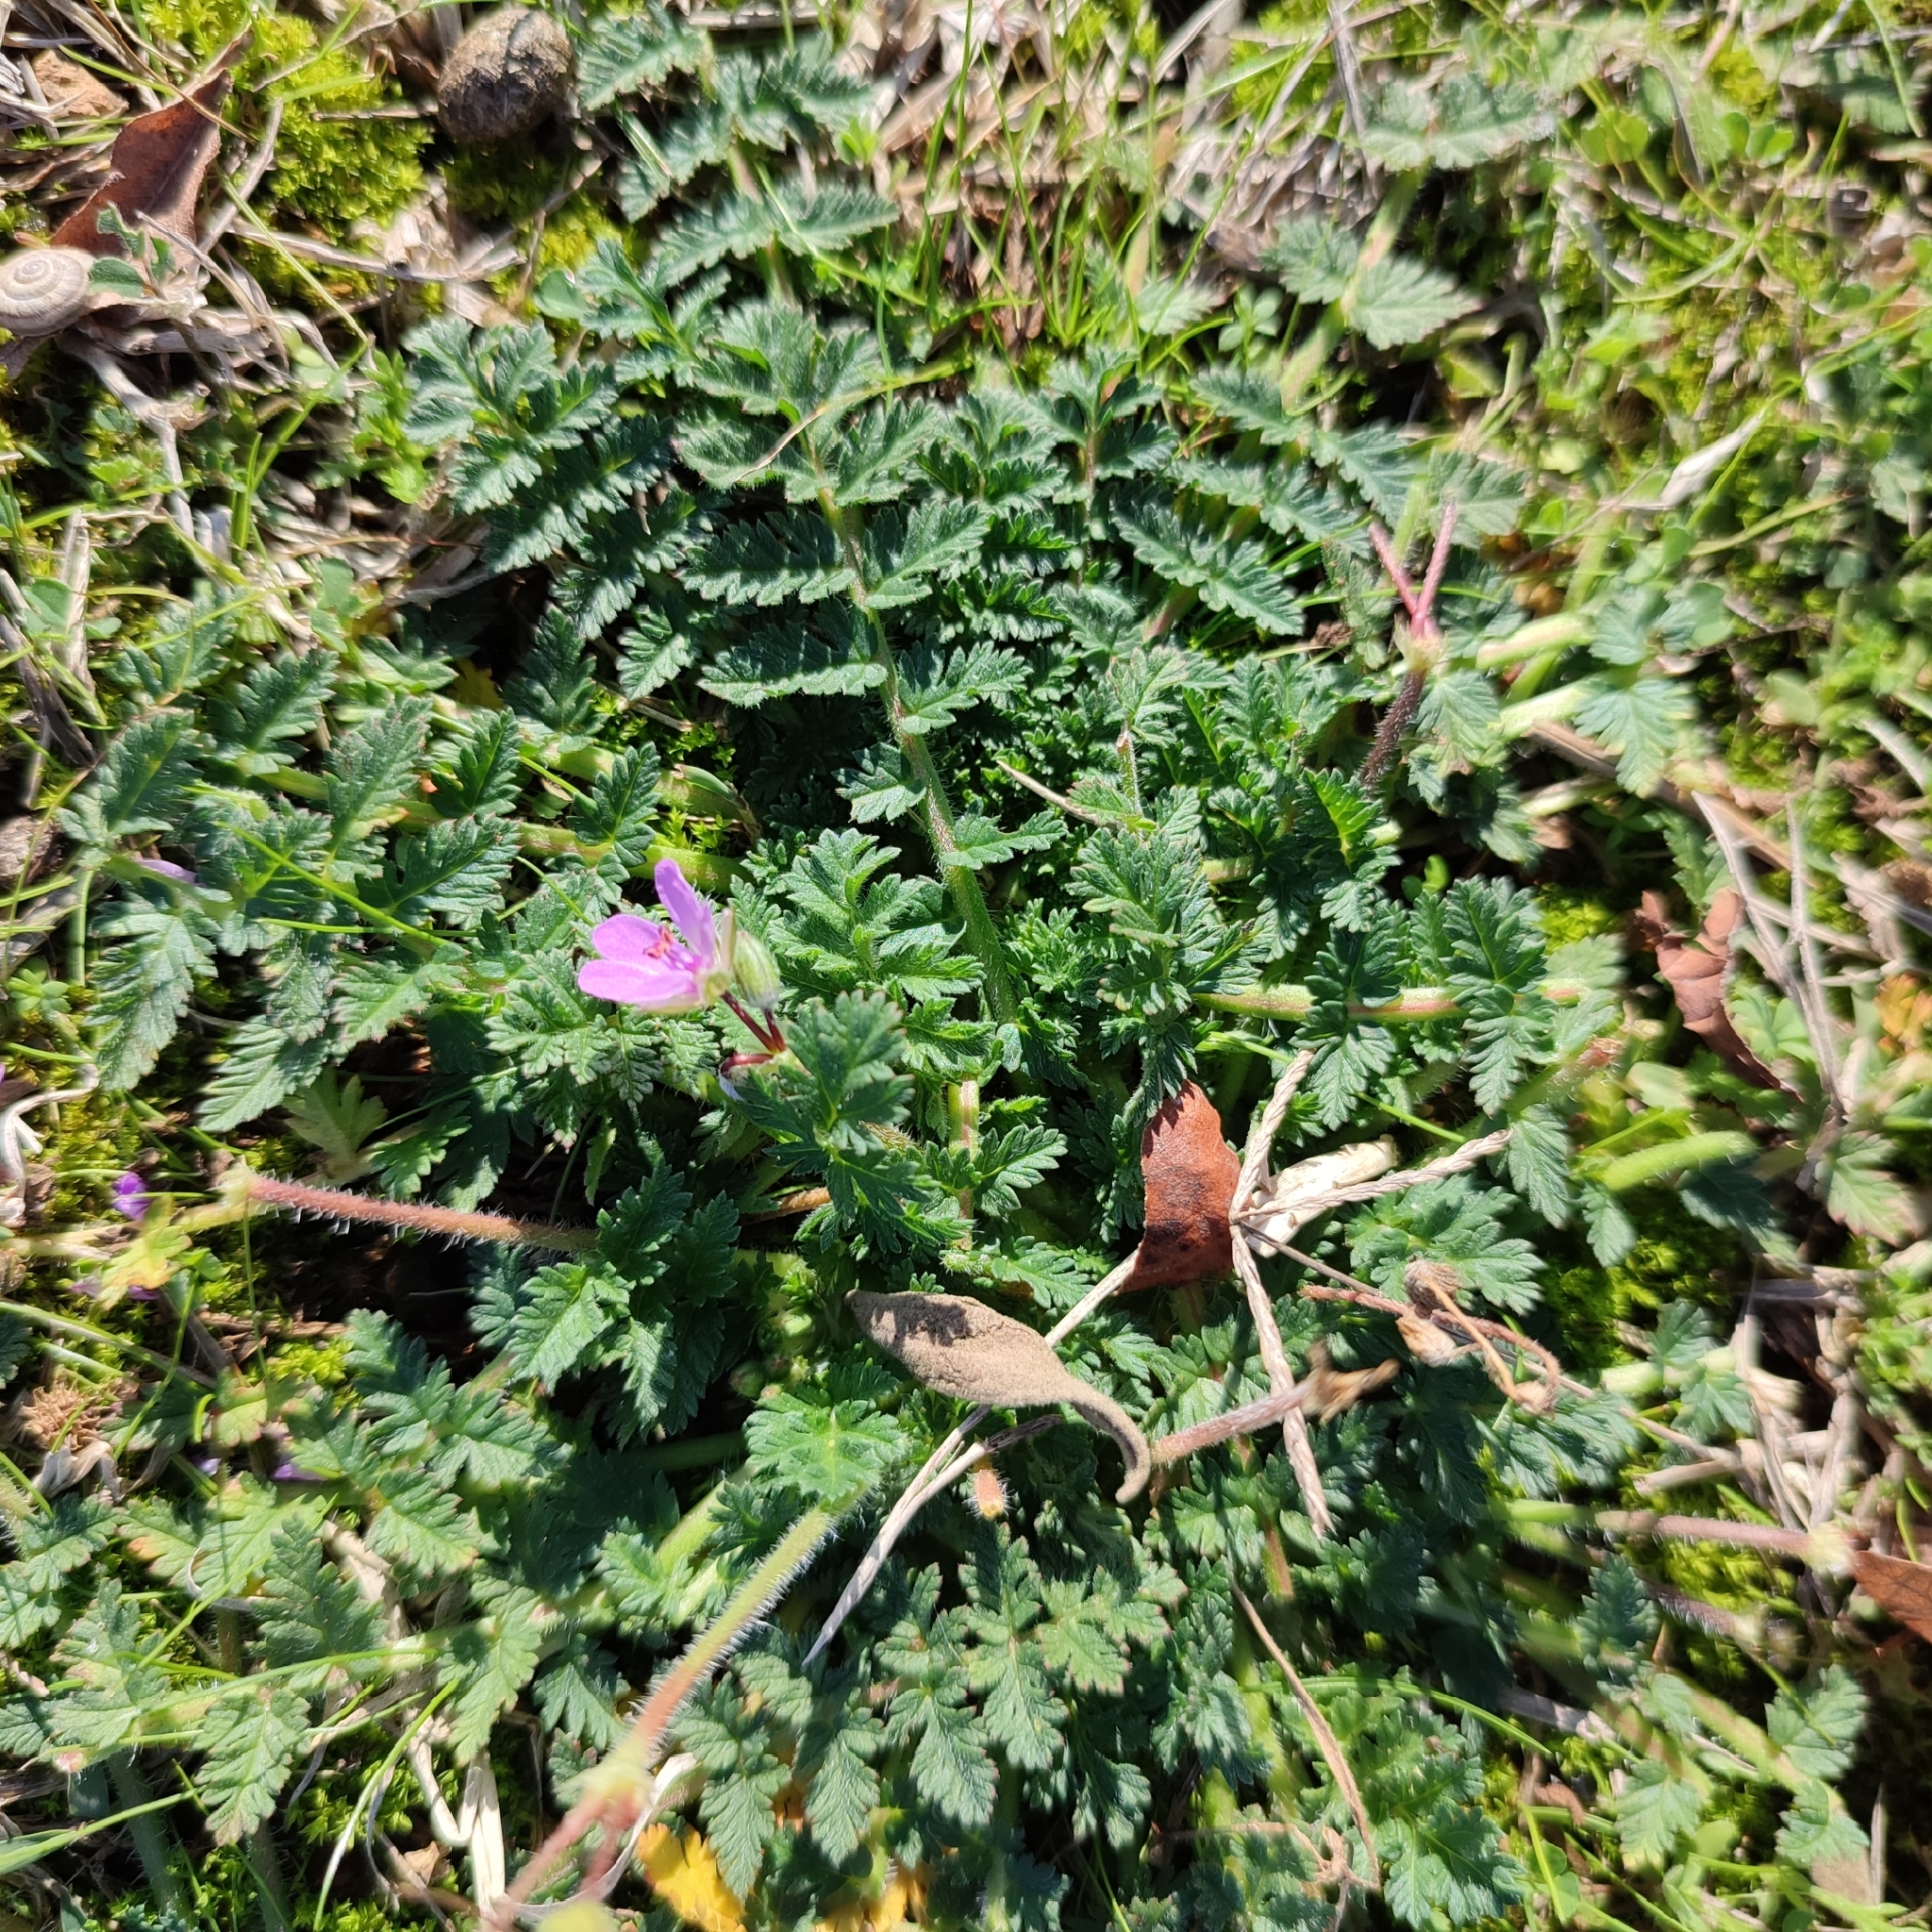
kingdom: Plantae
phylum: Tracheophyta
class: Magnoliopsida
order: Geraniales
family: Geraniaceae
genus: Erodium
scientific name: Erodium cicutarium
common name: Common stork's-bill
